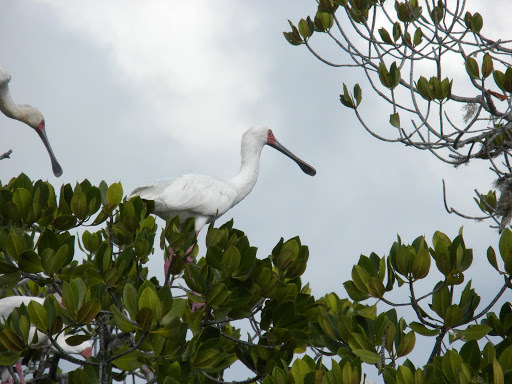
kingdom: Animalia
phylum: Chordata
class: Aves
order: Pelecaniformes
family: Threskiornithidae
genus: Platalea
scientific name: Platalea alba
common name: African spoonbill
